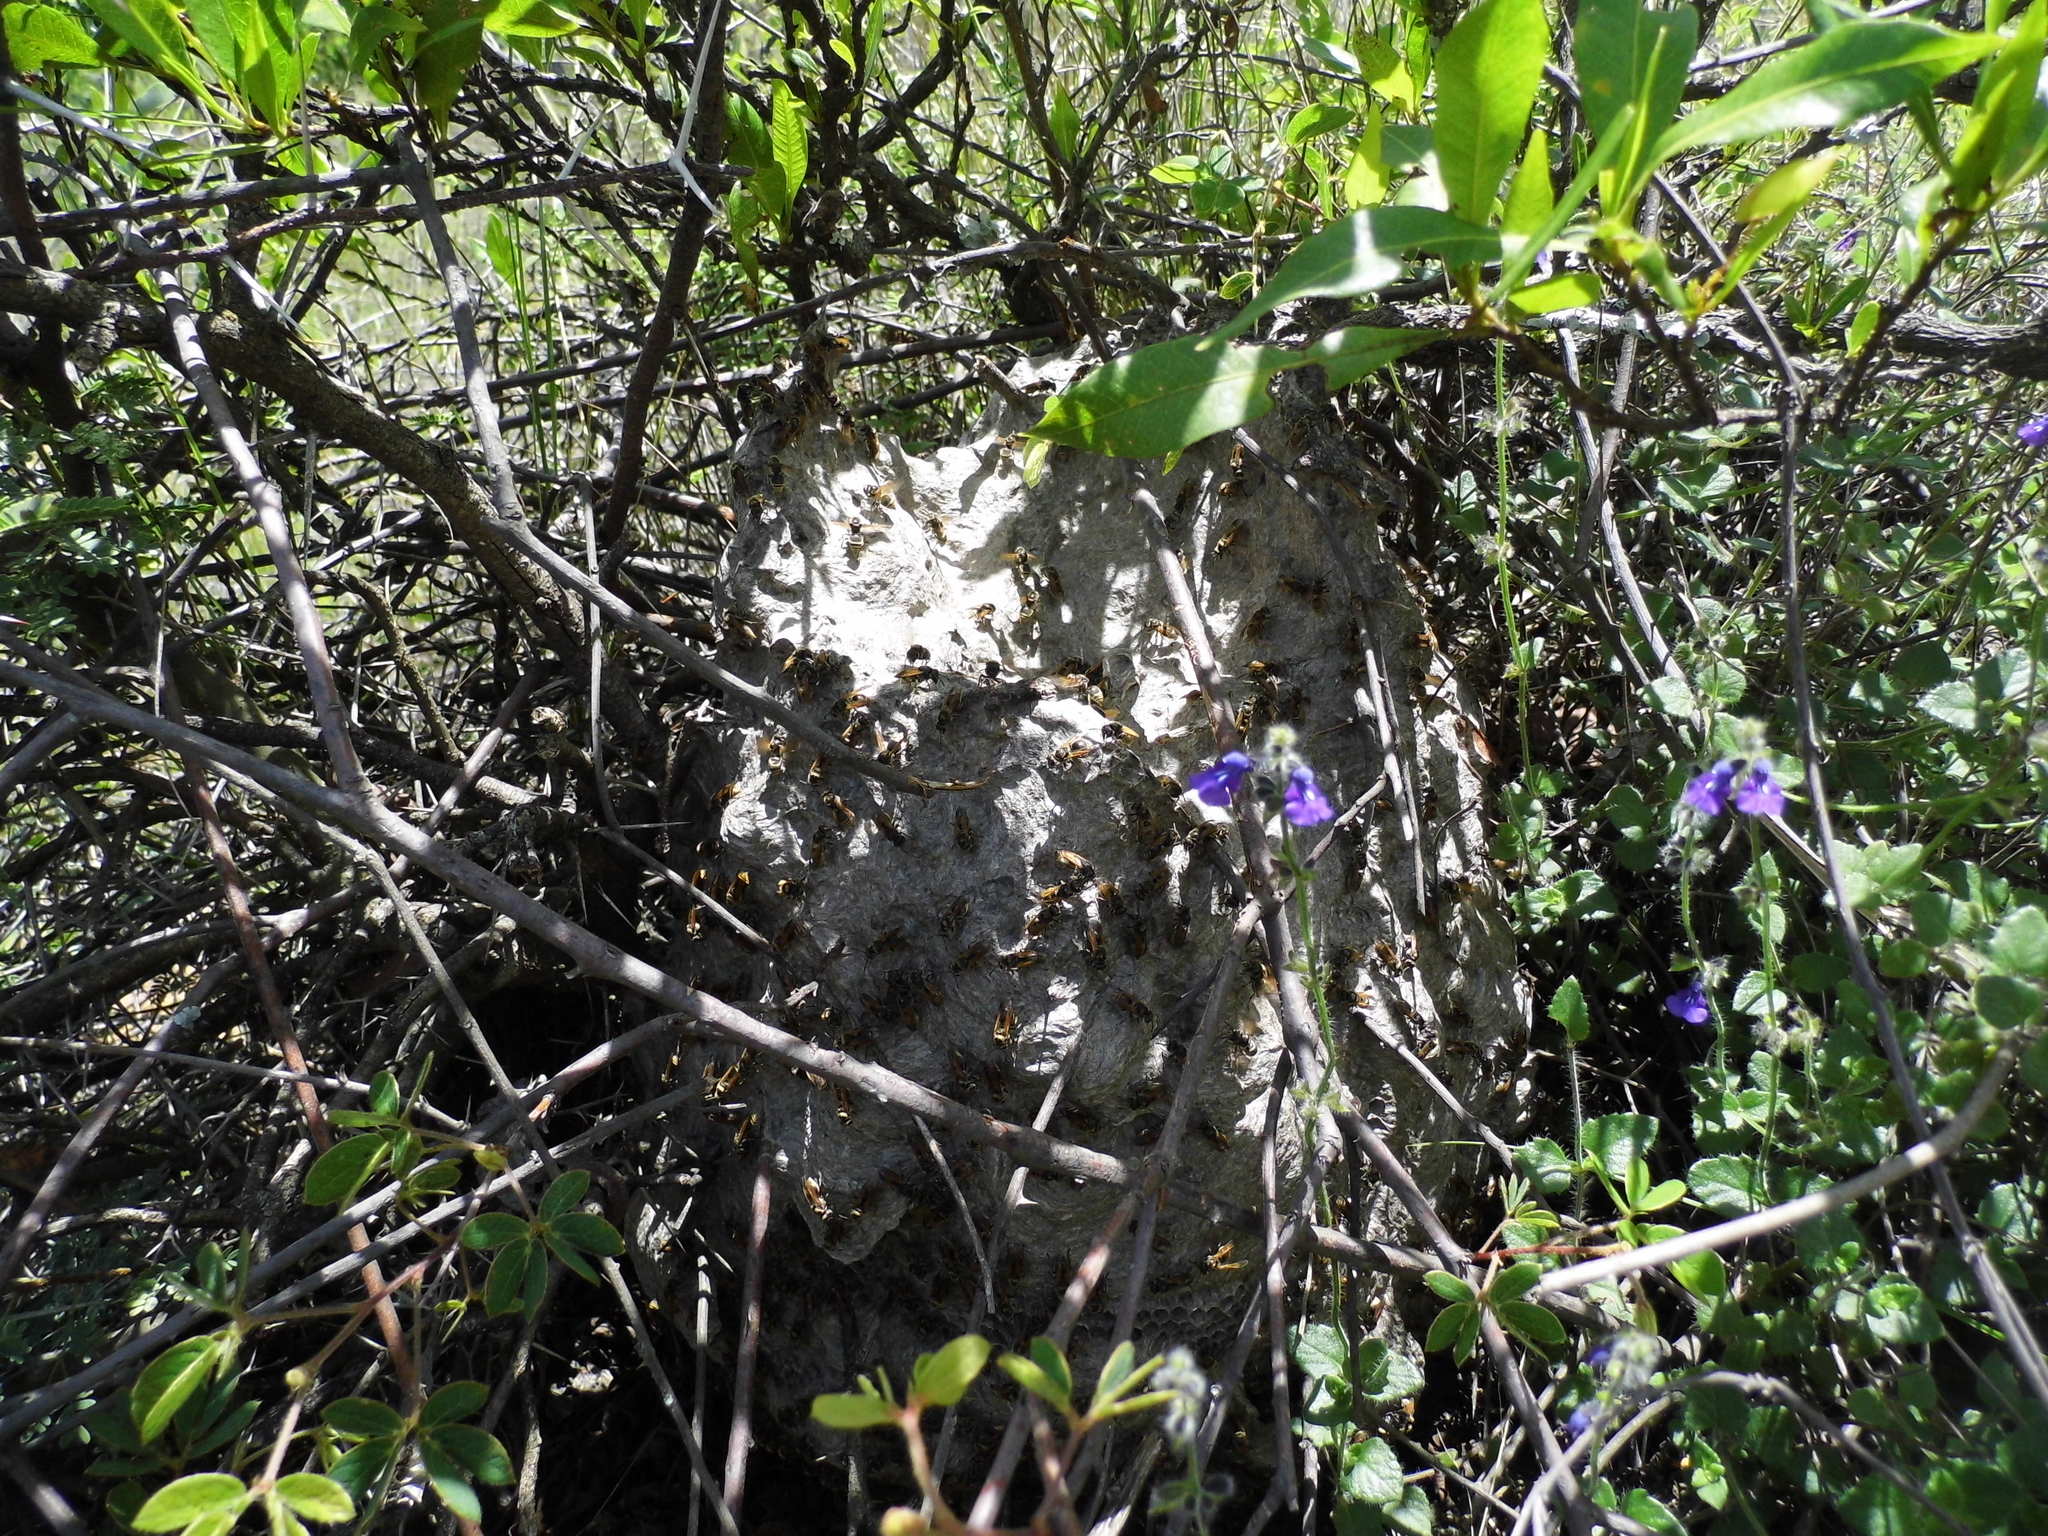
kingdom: Animalia
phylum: Arthropoda
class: Insecta
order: Hymenoptera
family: Vespidae
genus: Brachygastra
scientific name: Brachygastra mellifica
